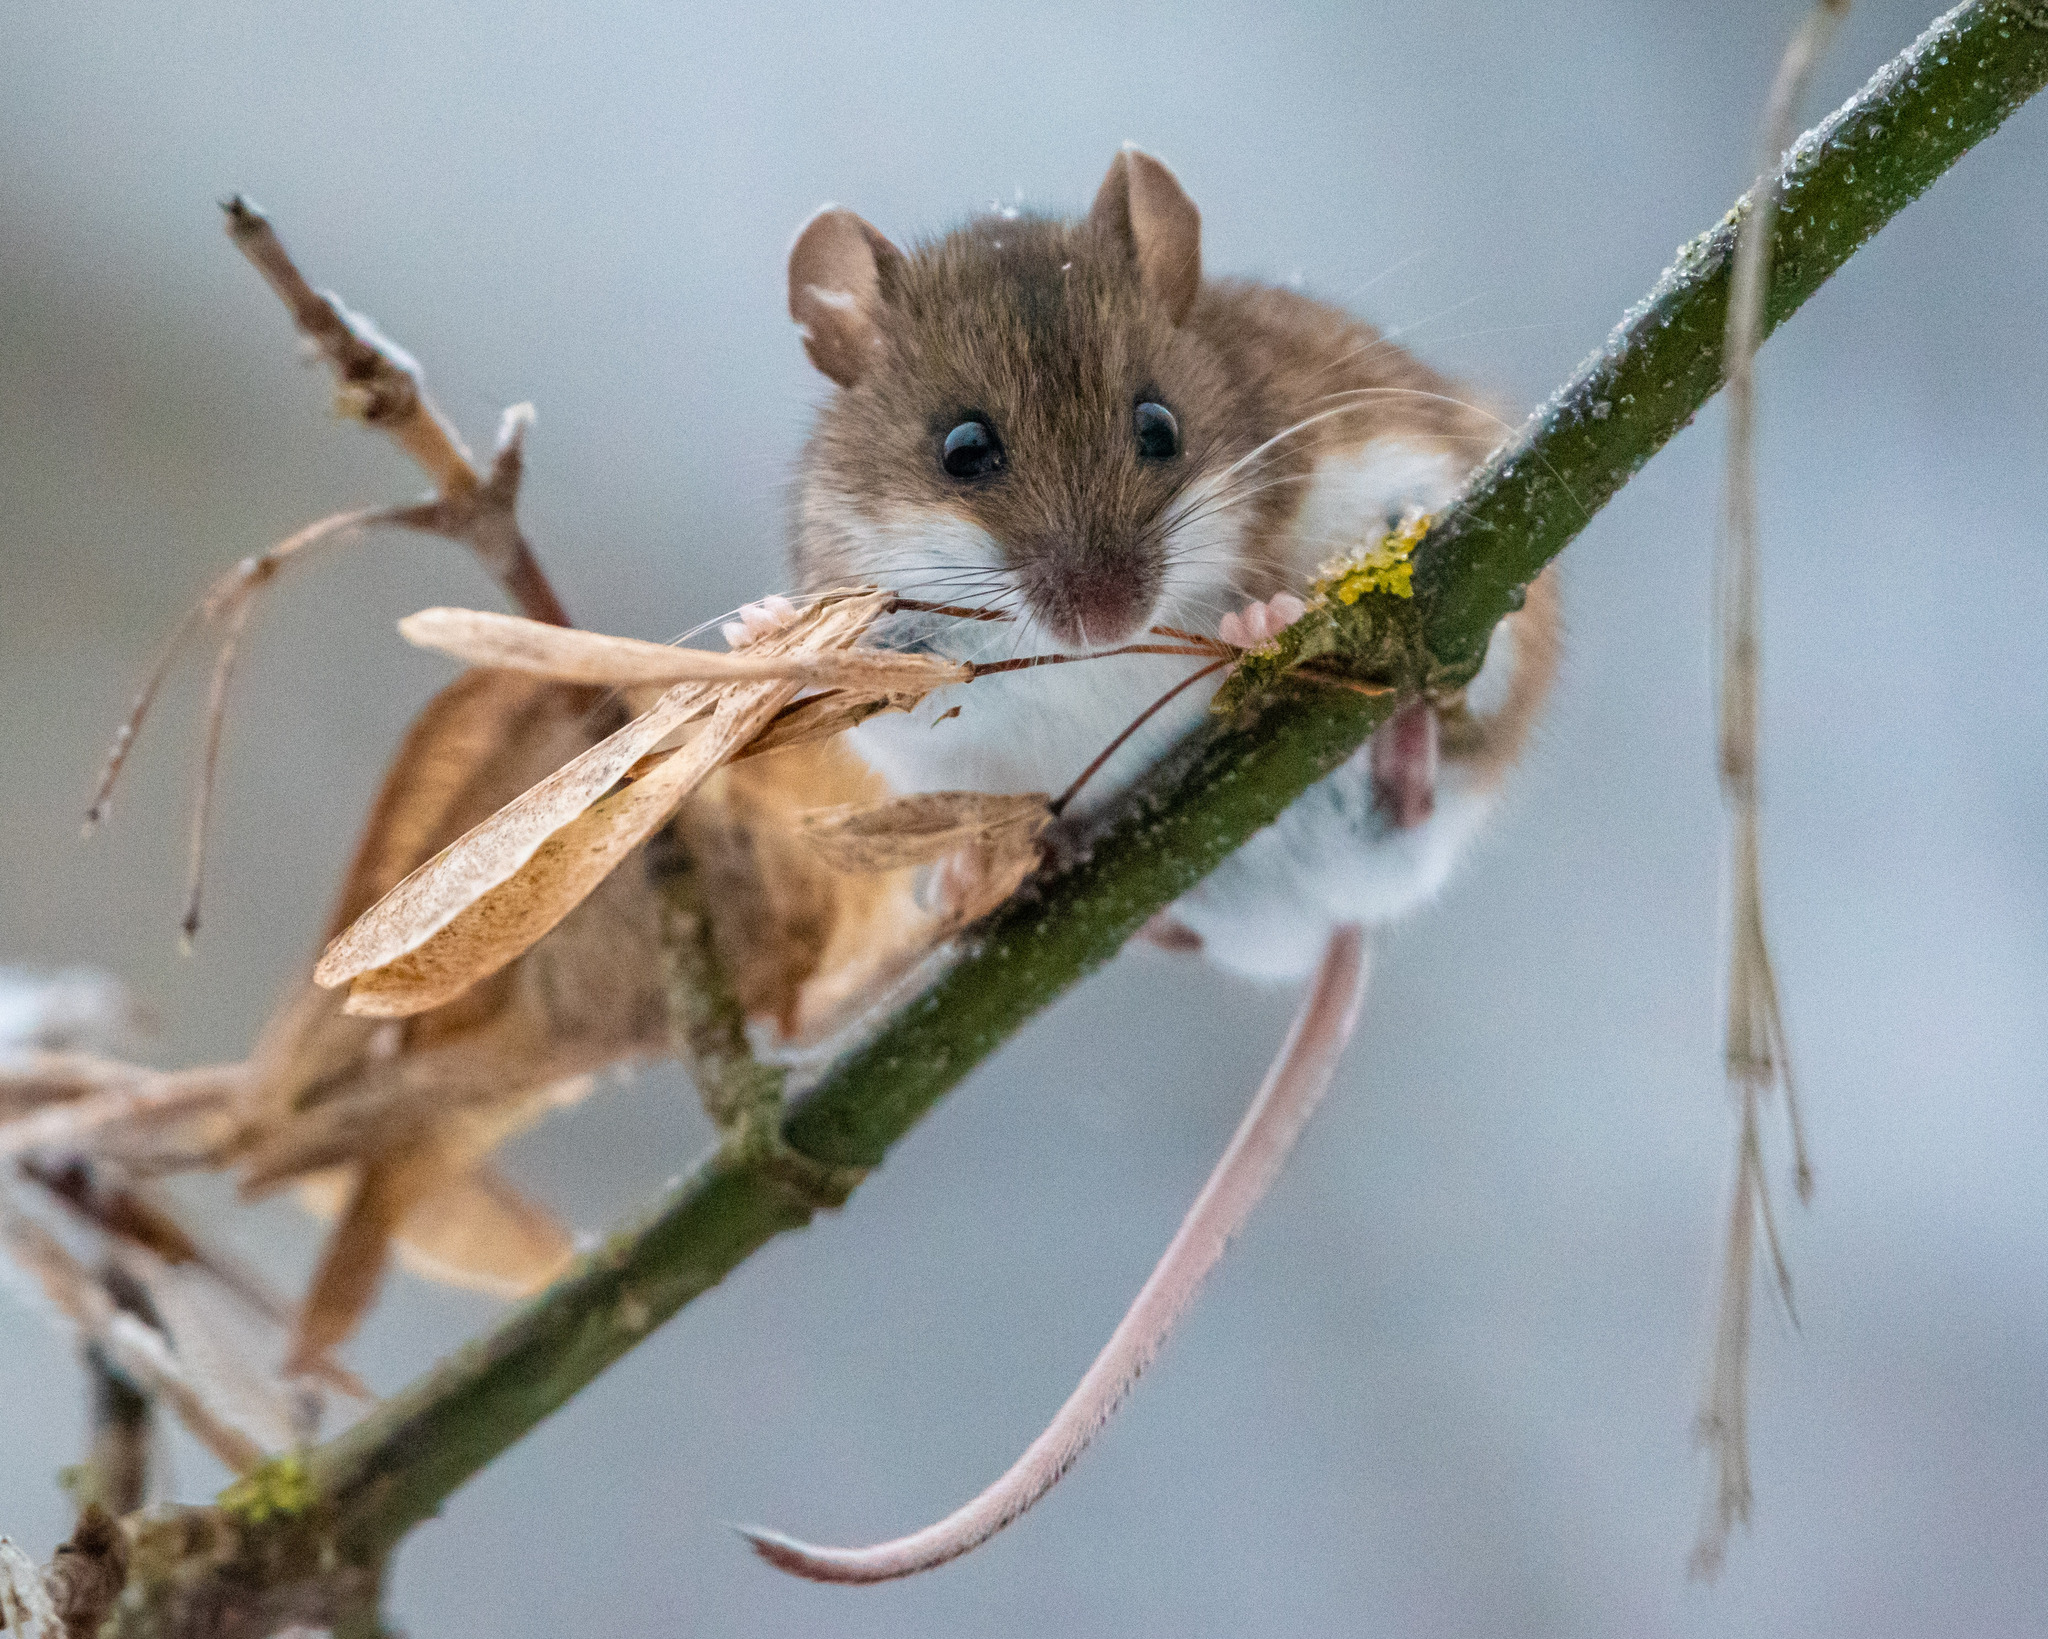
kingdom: Plantae
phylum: Tracheophyta
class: Magnoliopsida
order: Sapindales
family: Sapindaceae
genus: Acer
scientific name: Acer negundo
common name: Ashleaf maple
